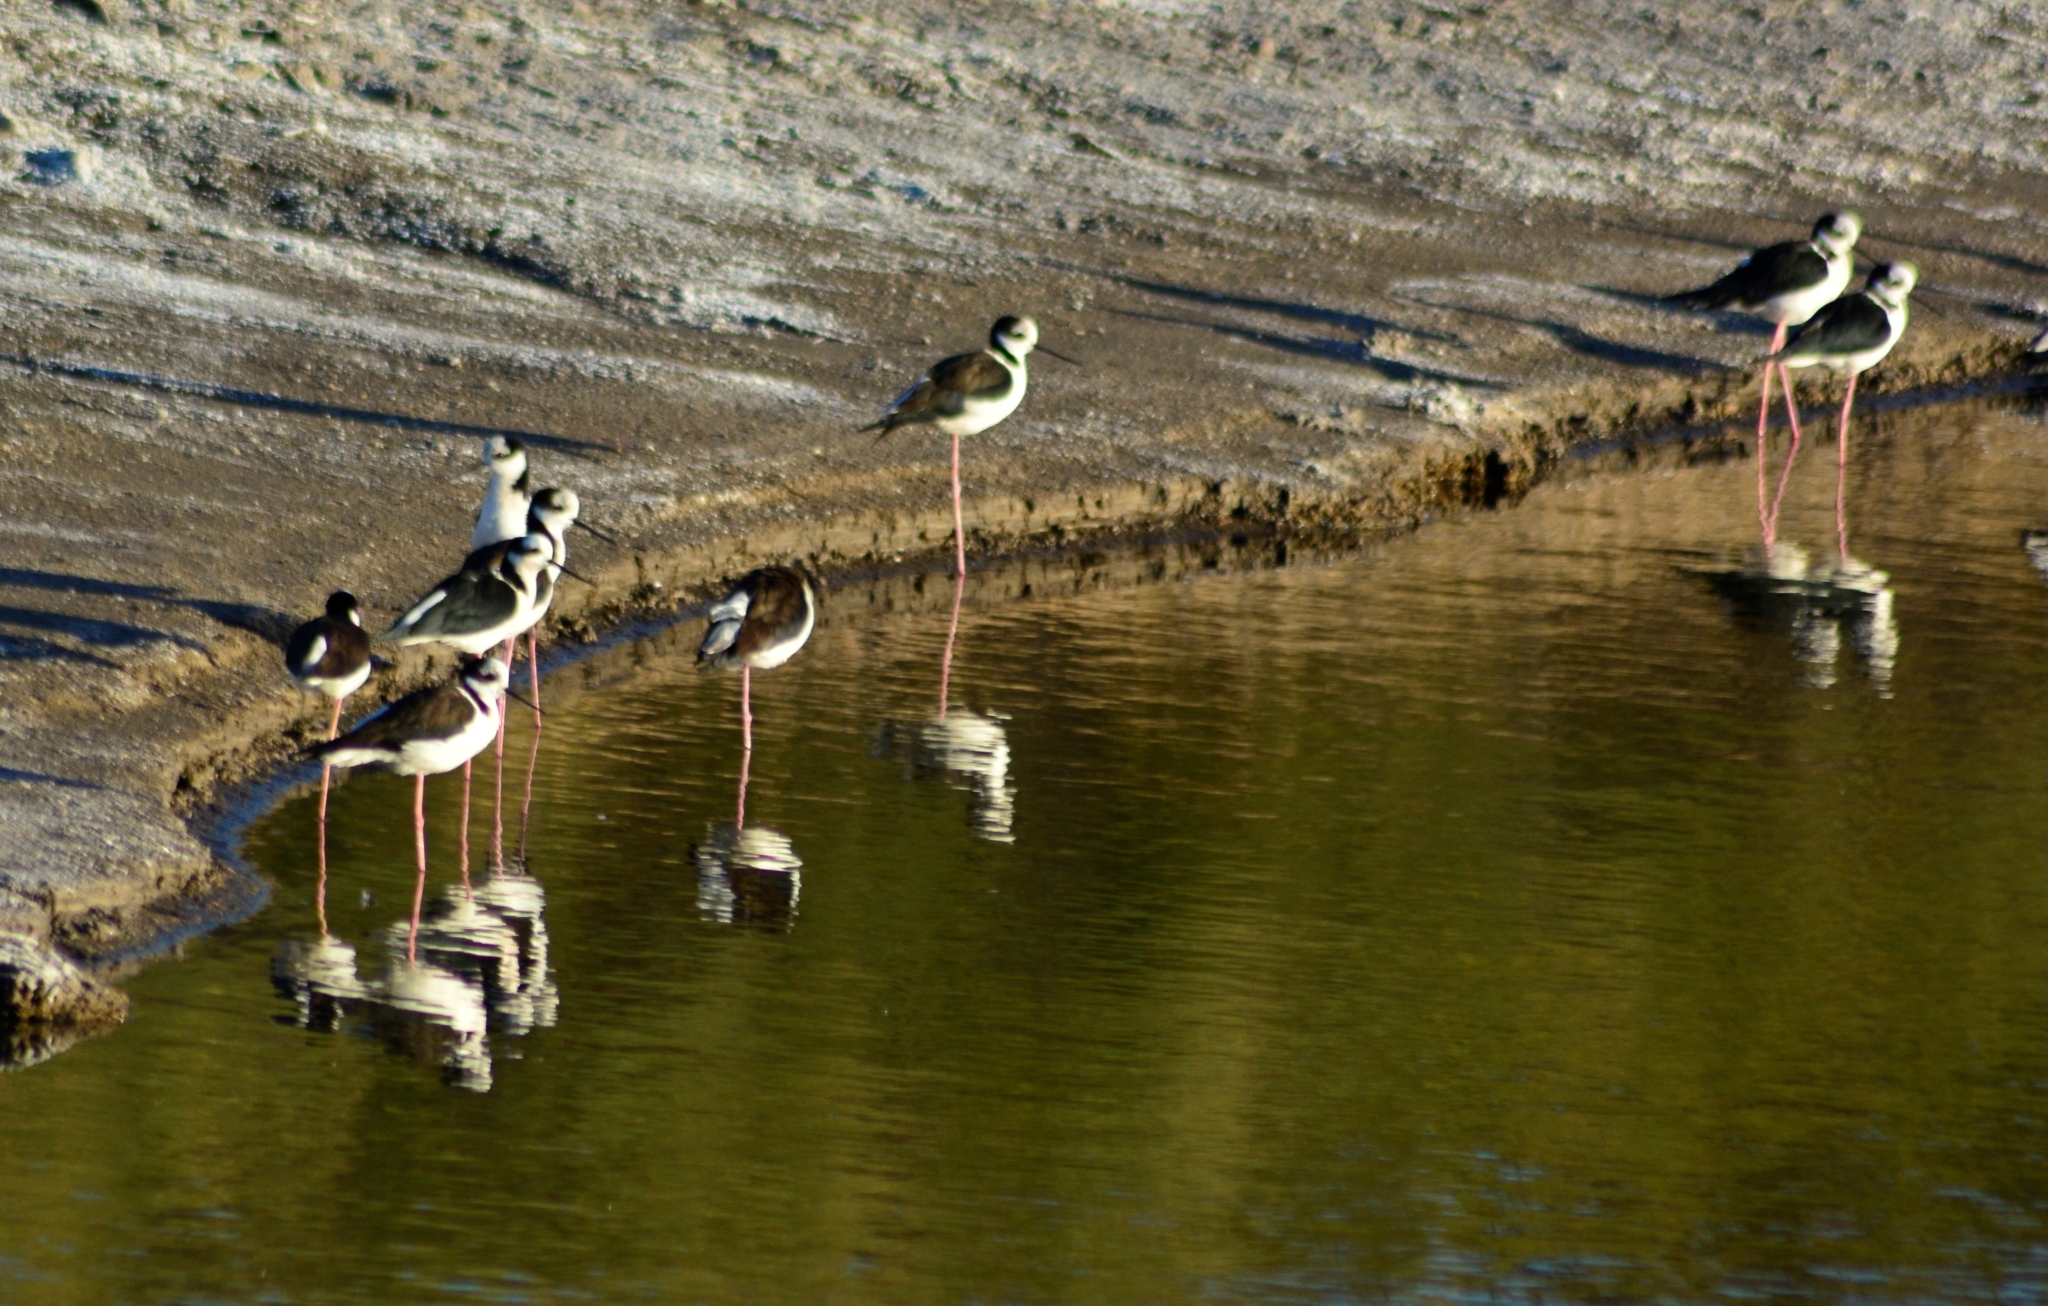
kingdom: Animalia
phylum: Chordata
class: Aves
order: Charadriiformes
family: Recurvirostridae
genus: Himantopus
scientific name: Himantopus mexicanus
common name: Black-necked stilt
